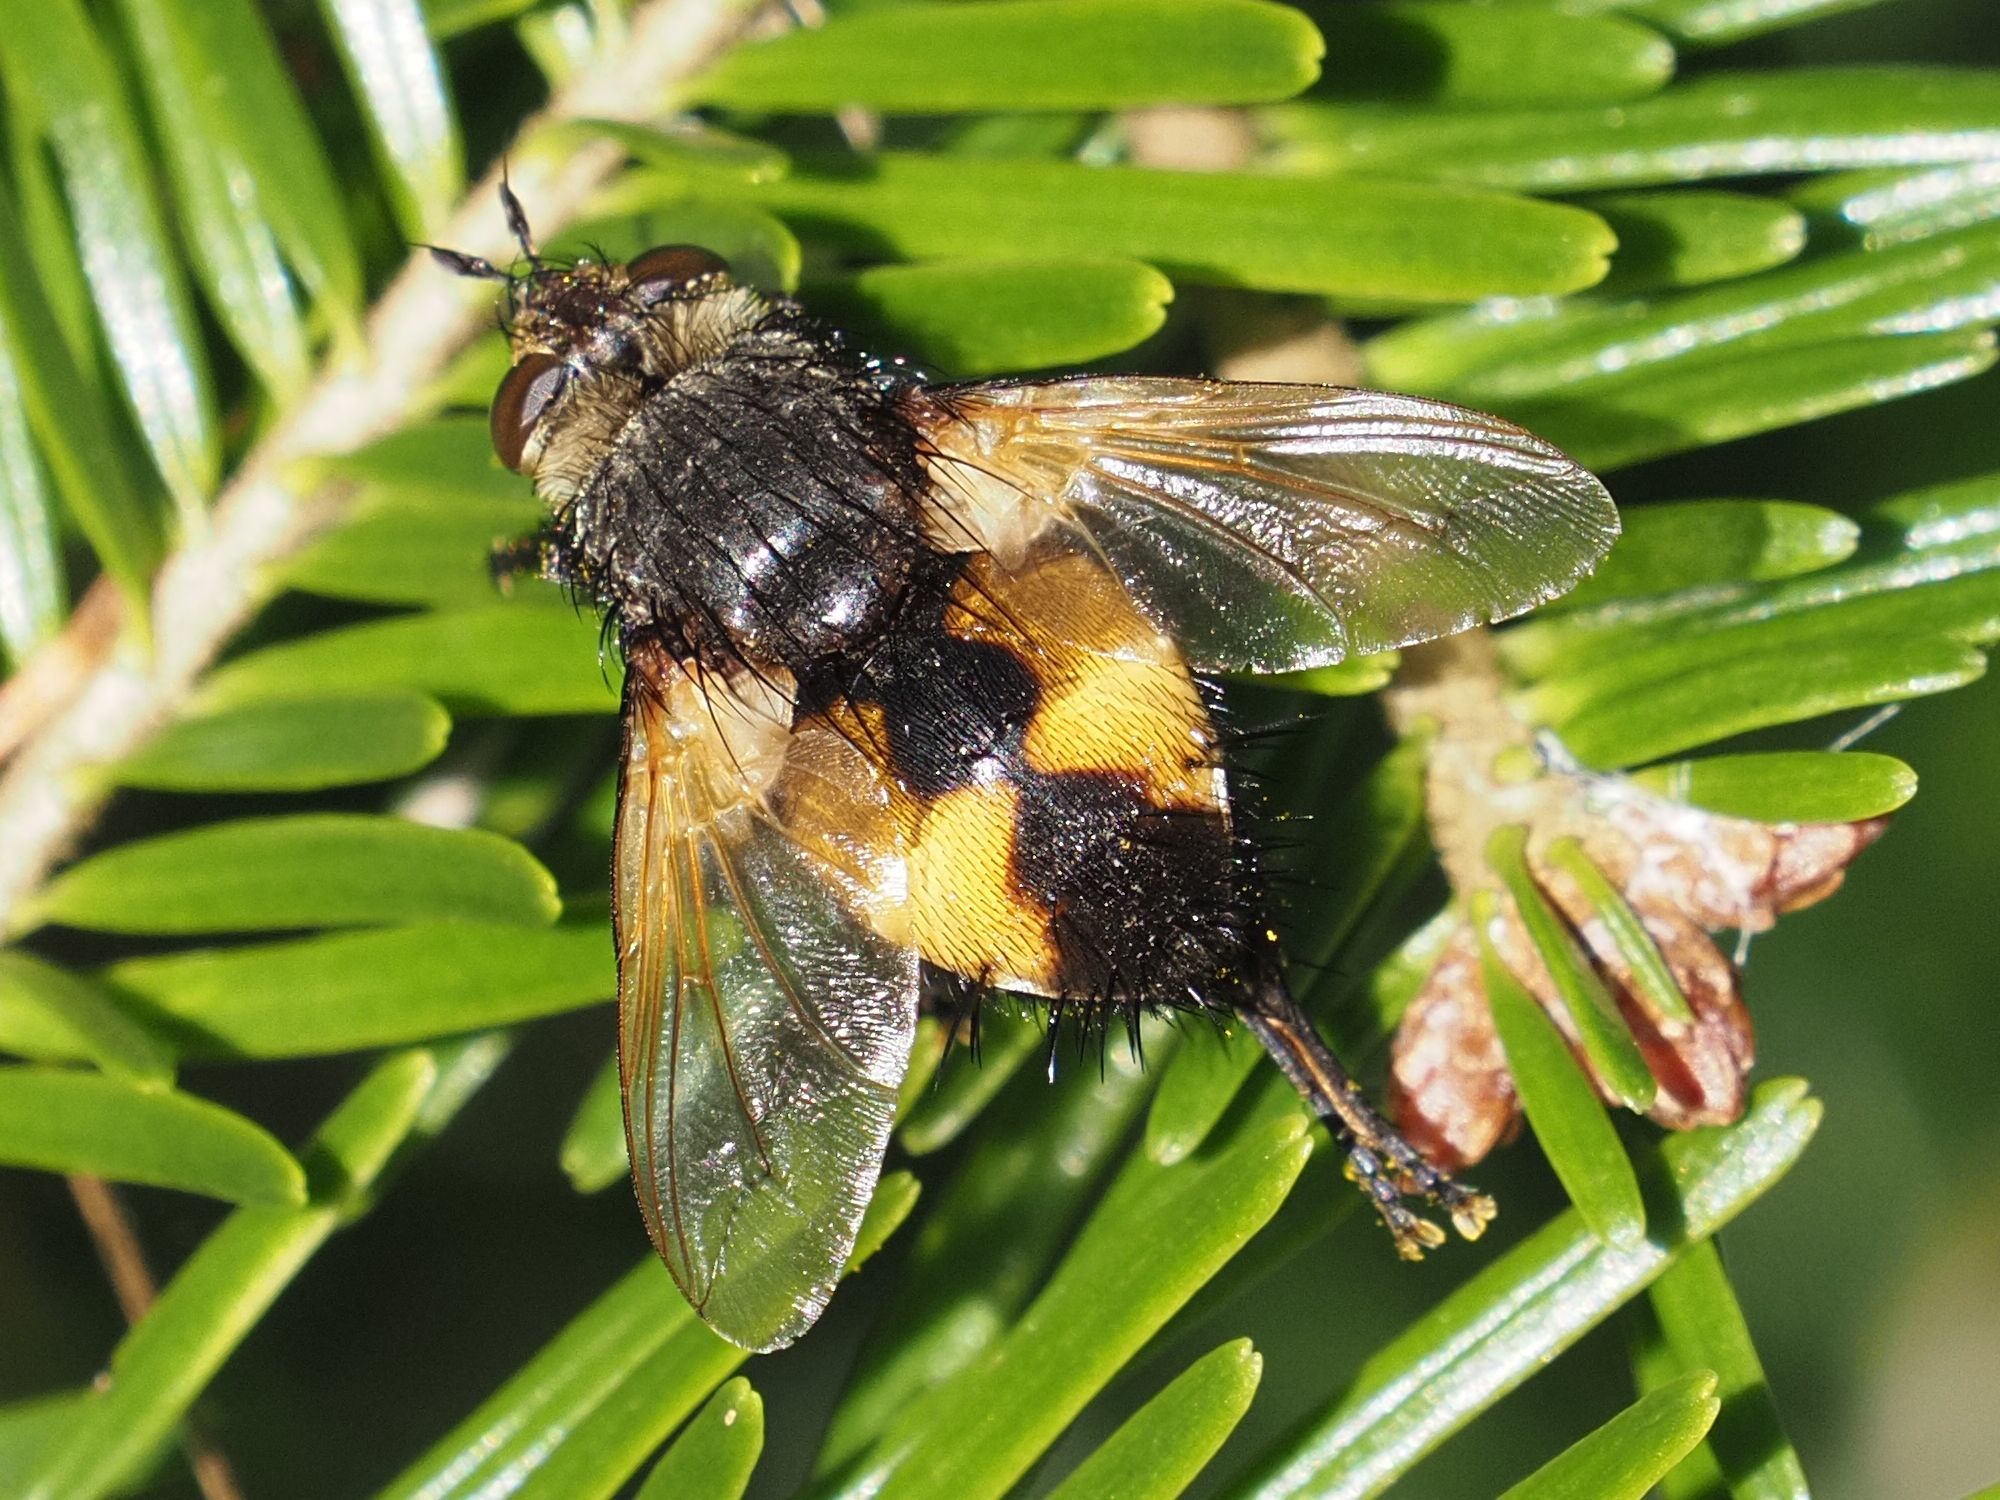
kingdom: Animalia
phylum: Arthropoda
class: Insecta
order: Diptera
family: Tachinidae
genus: Nowickia
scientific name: Nowickia ferox
